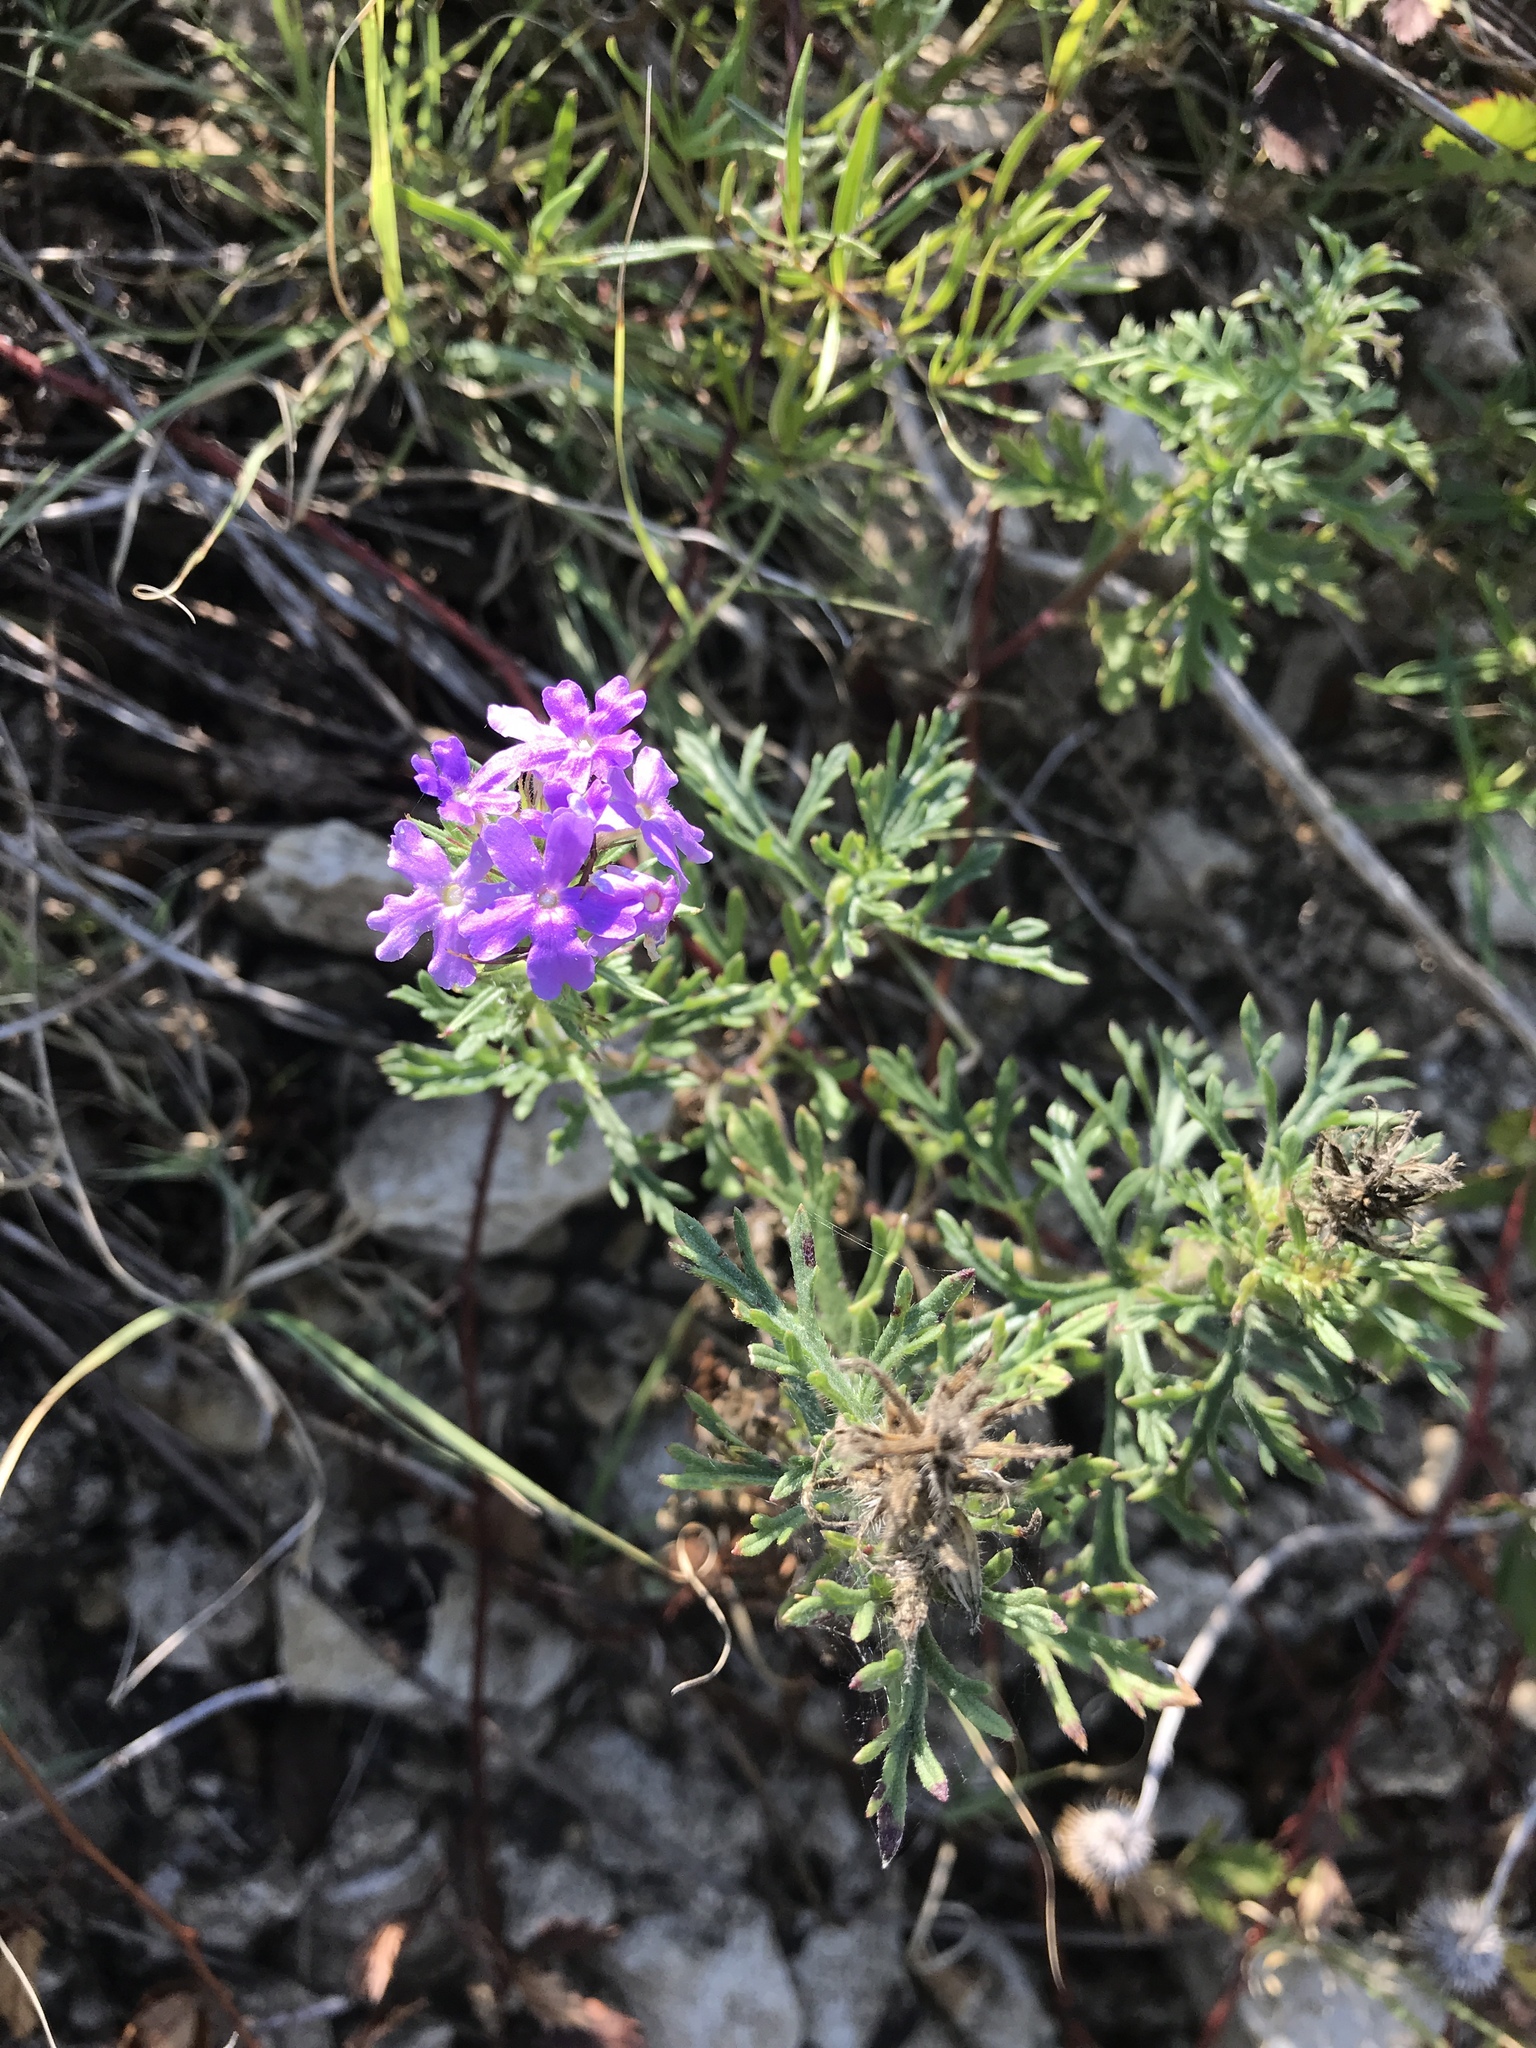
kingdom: Plantae
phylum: Tracheophyta
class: Magnoliopsida
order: Lamiales
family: Verbenaceae
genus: Verbena
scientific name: Verbena bipinnatifida
